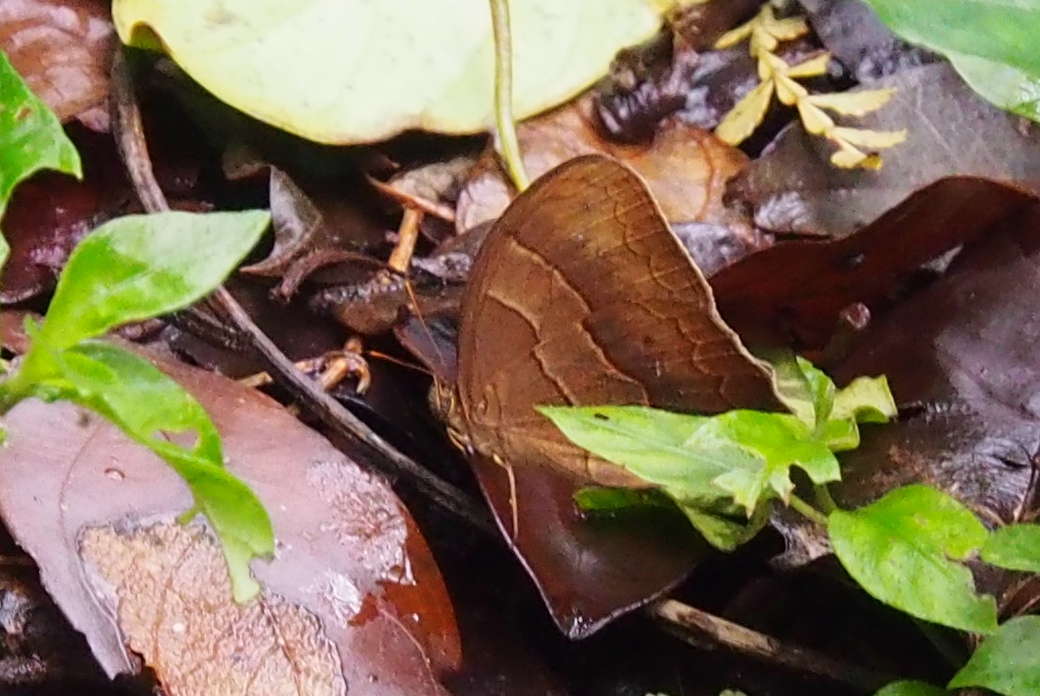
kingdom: Animalia
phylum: Arthropoda
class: Insecta
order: Lepidoptera
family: Nymphalidae
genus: Satyrotaygetis
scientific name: Satyrotaygetis satyrina
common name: Wide-bordered satyr
